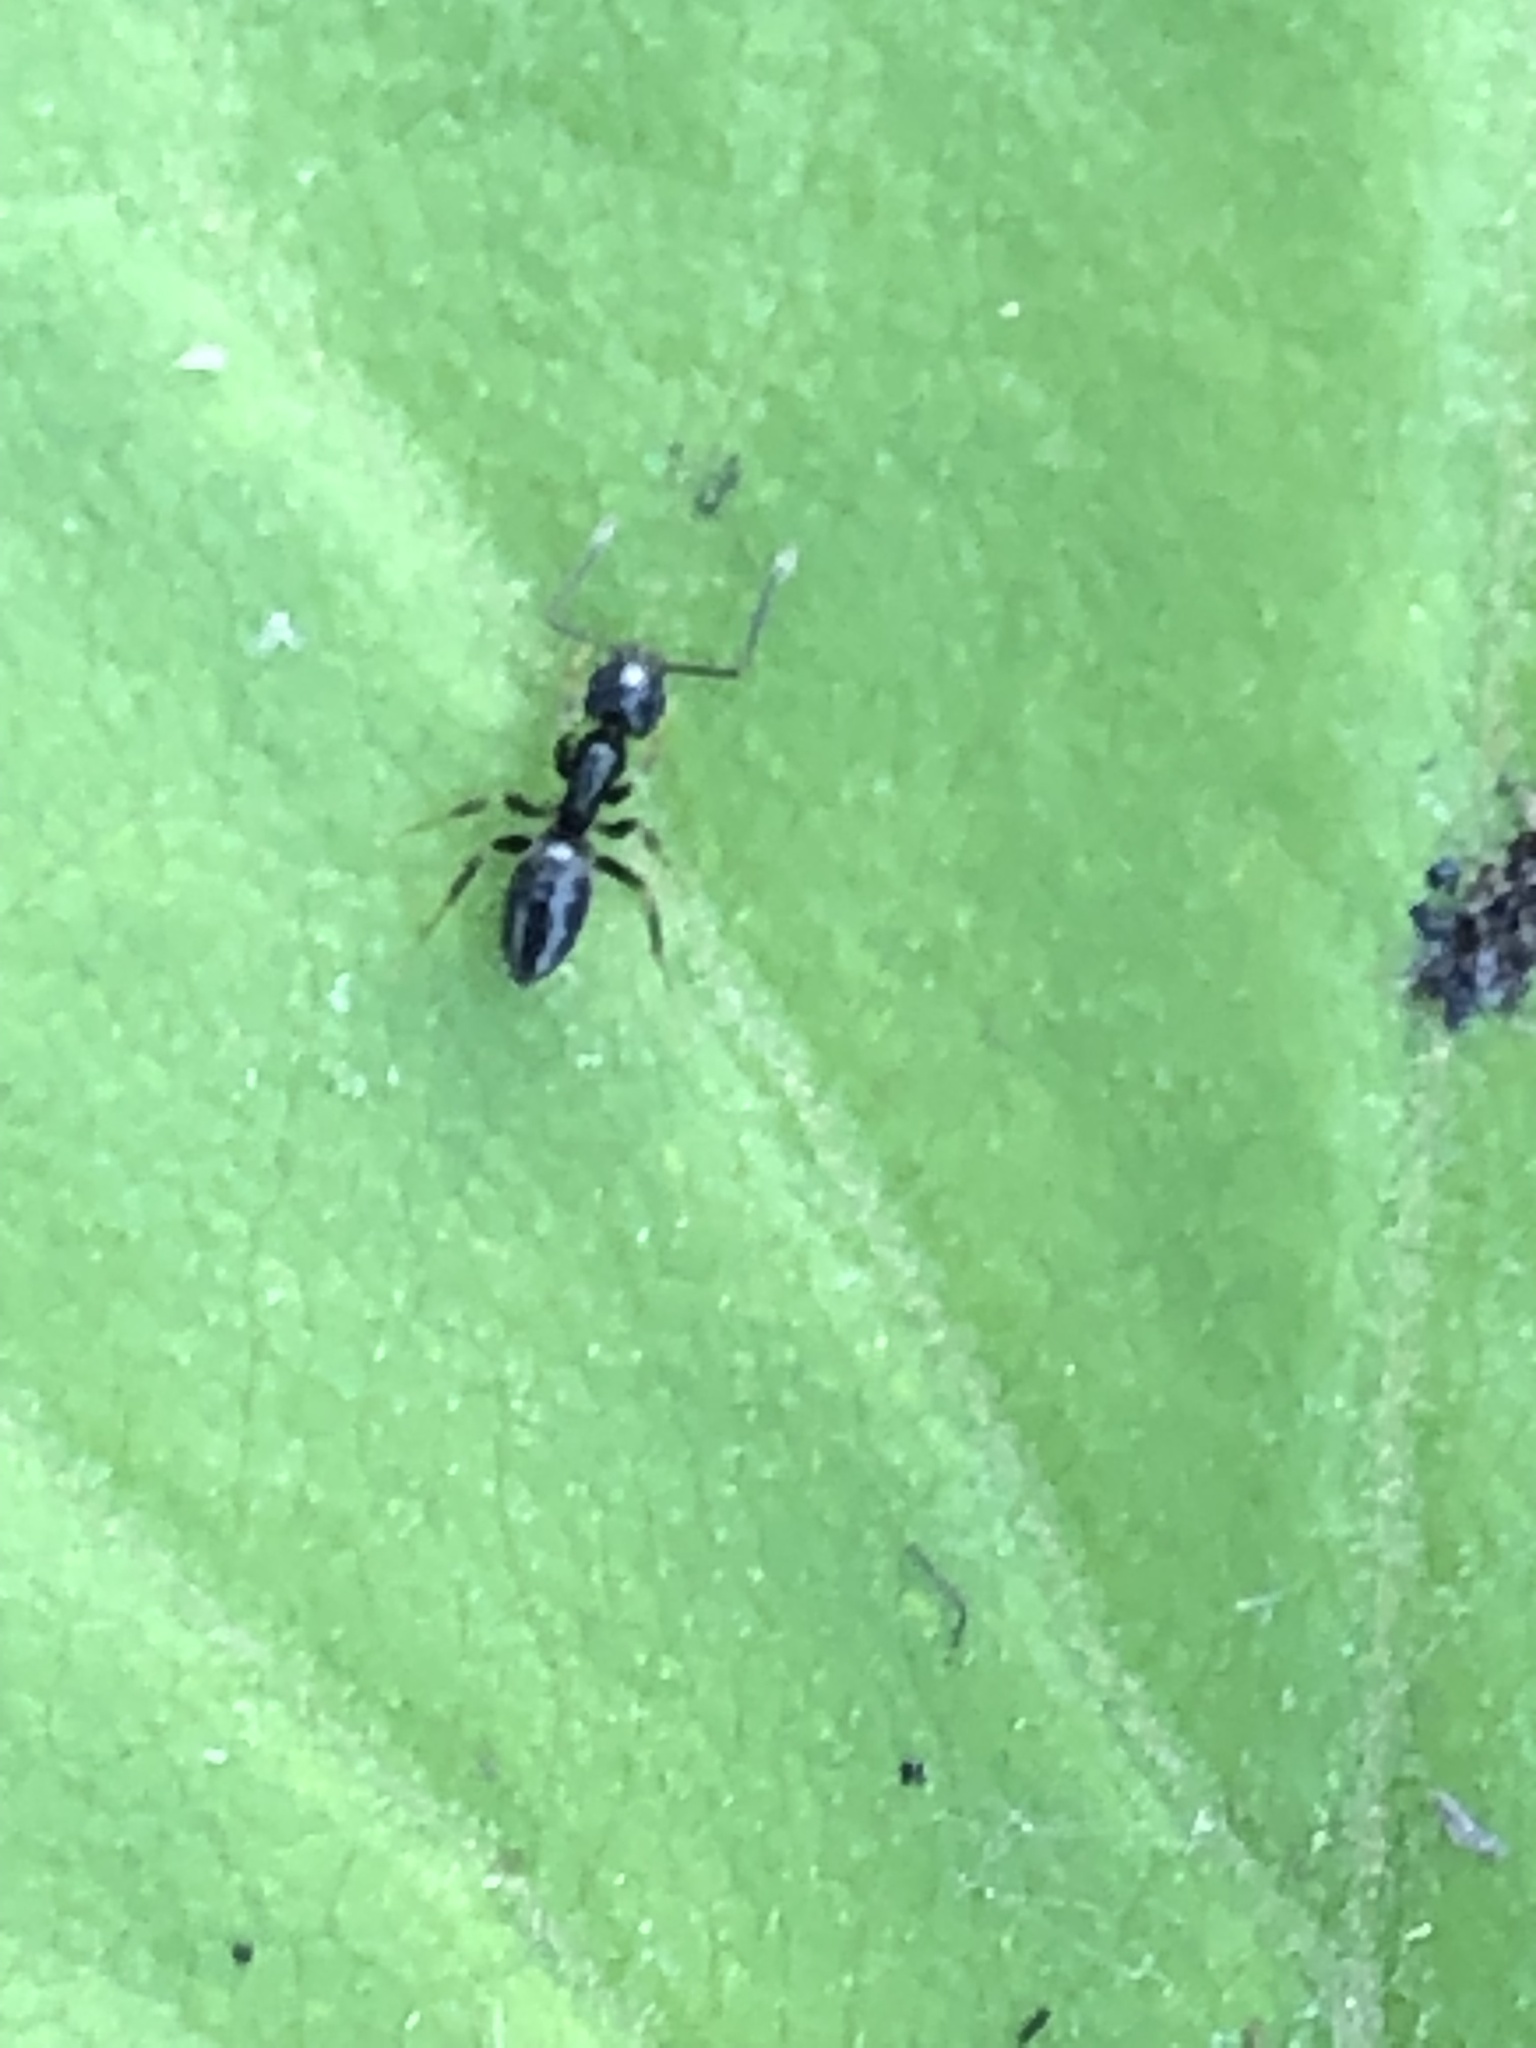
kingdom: Animalia
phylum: Arthropoda
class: Insecta
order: Hymenoptera
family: Formicidae
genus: Tapinoma
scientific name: Tapinoma sessile
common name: Odorous house ant
